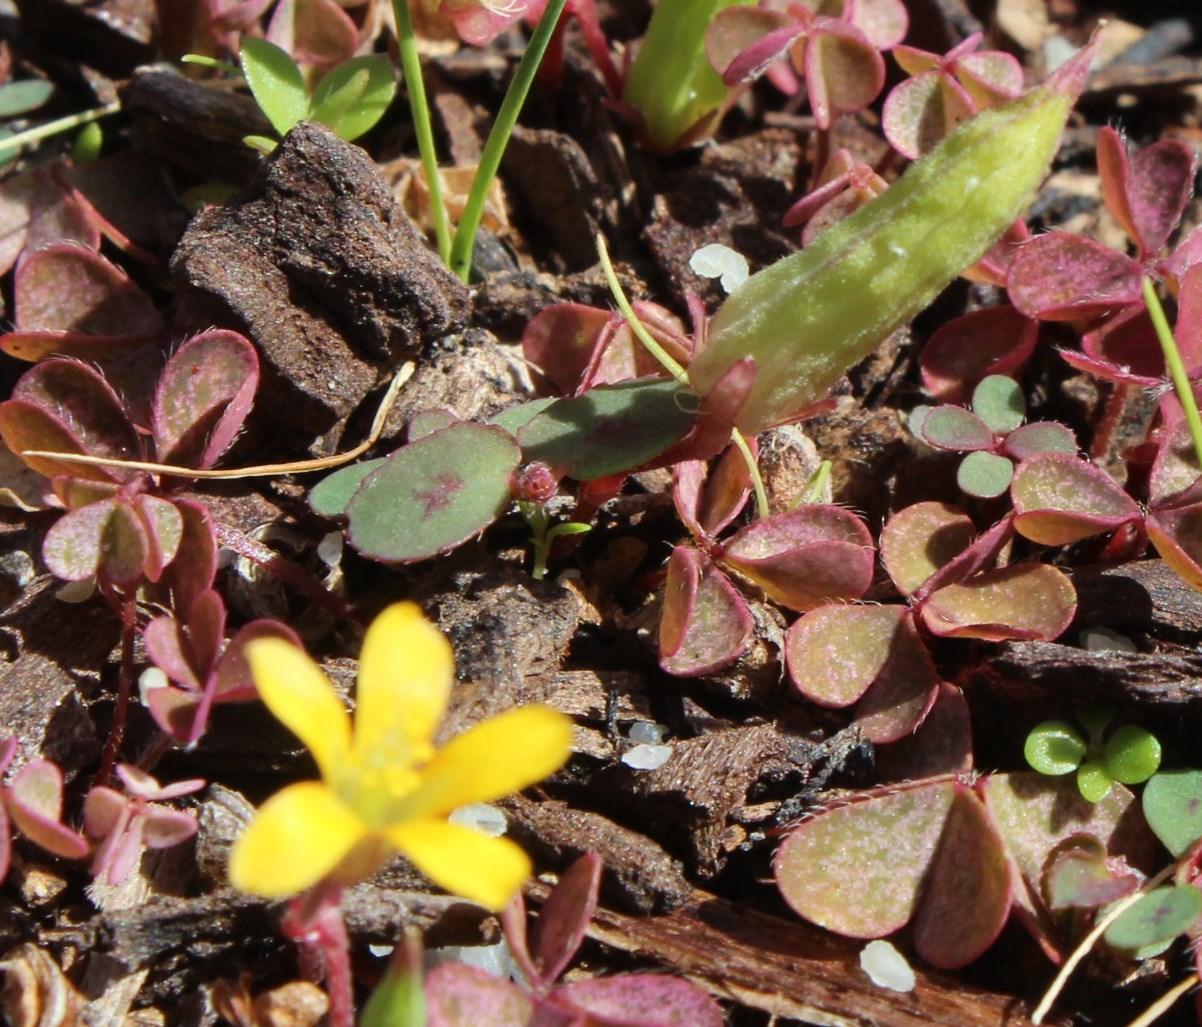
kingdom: Plantae
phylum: Tracheophyta
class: Magnoliopsida
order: Oxalidales
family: Oxalidaceae
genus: Oxalis
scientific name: Oxalis corniculata
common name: Procumbent yellow-sorrel
